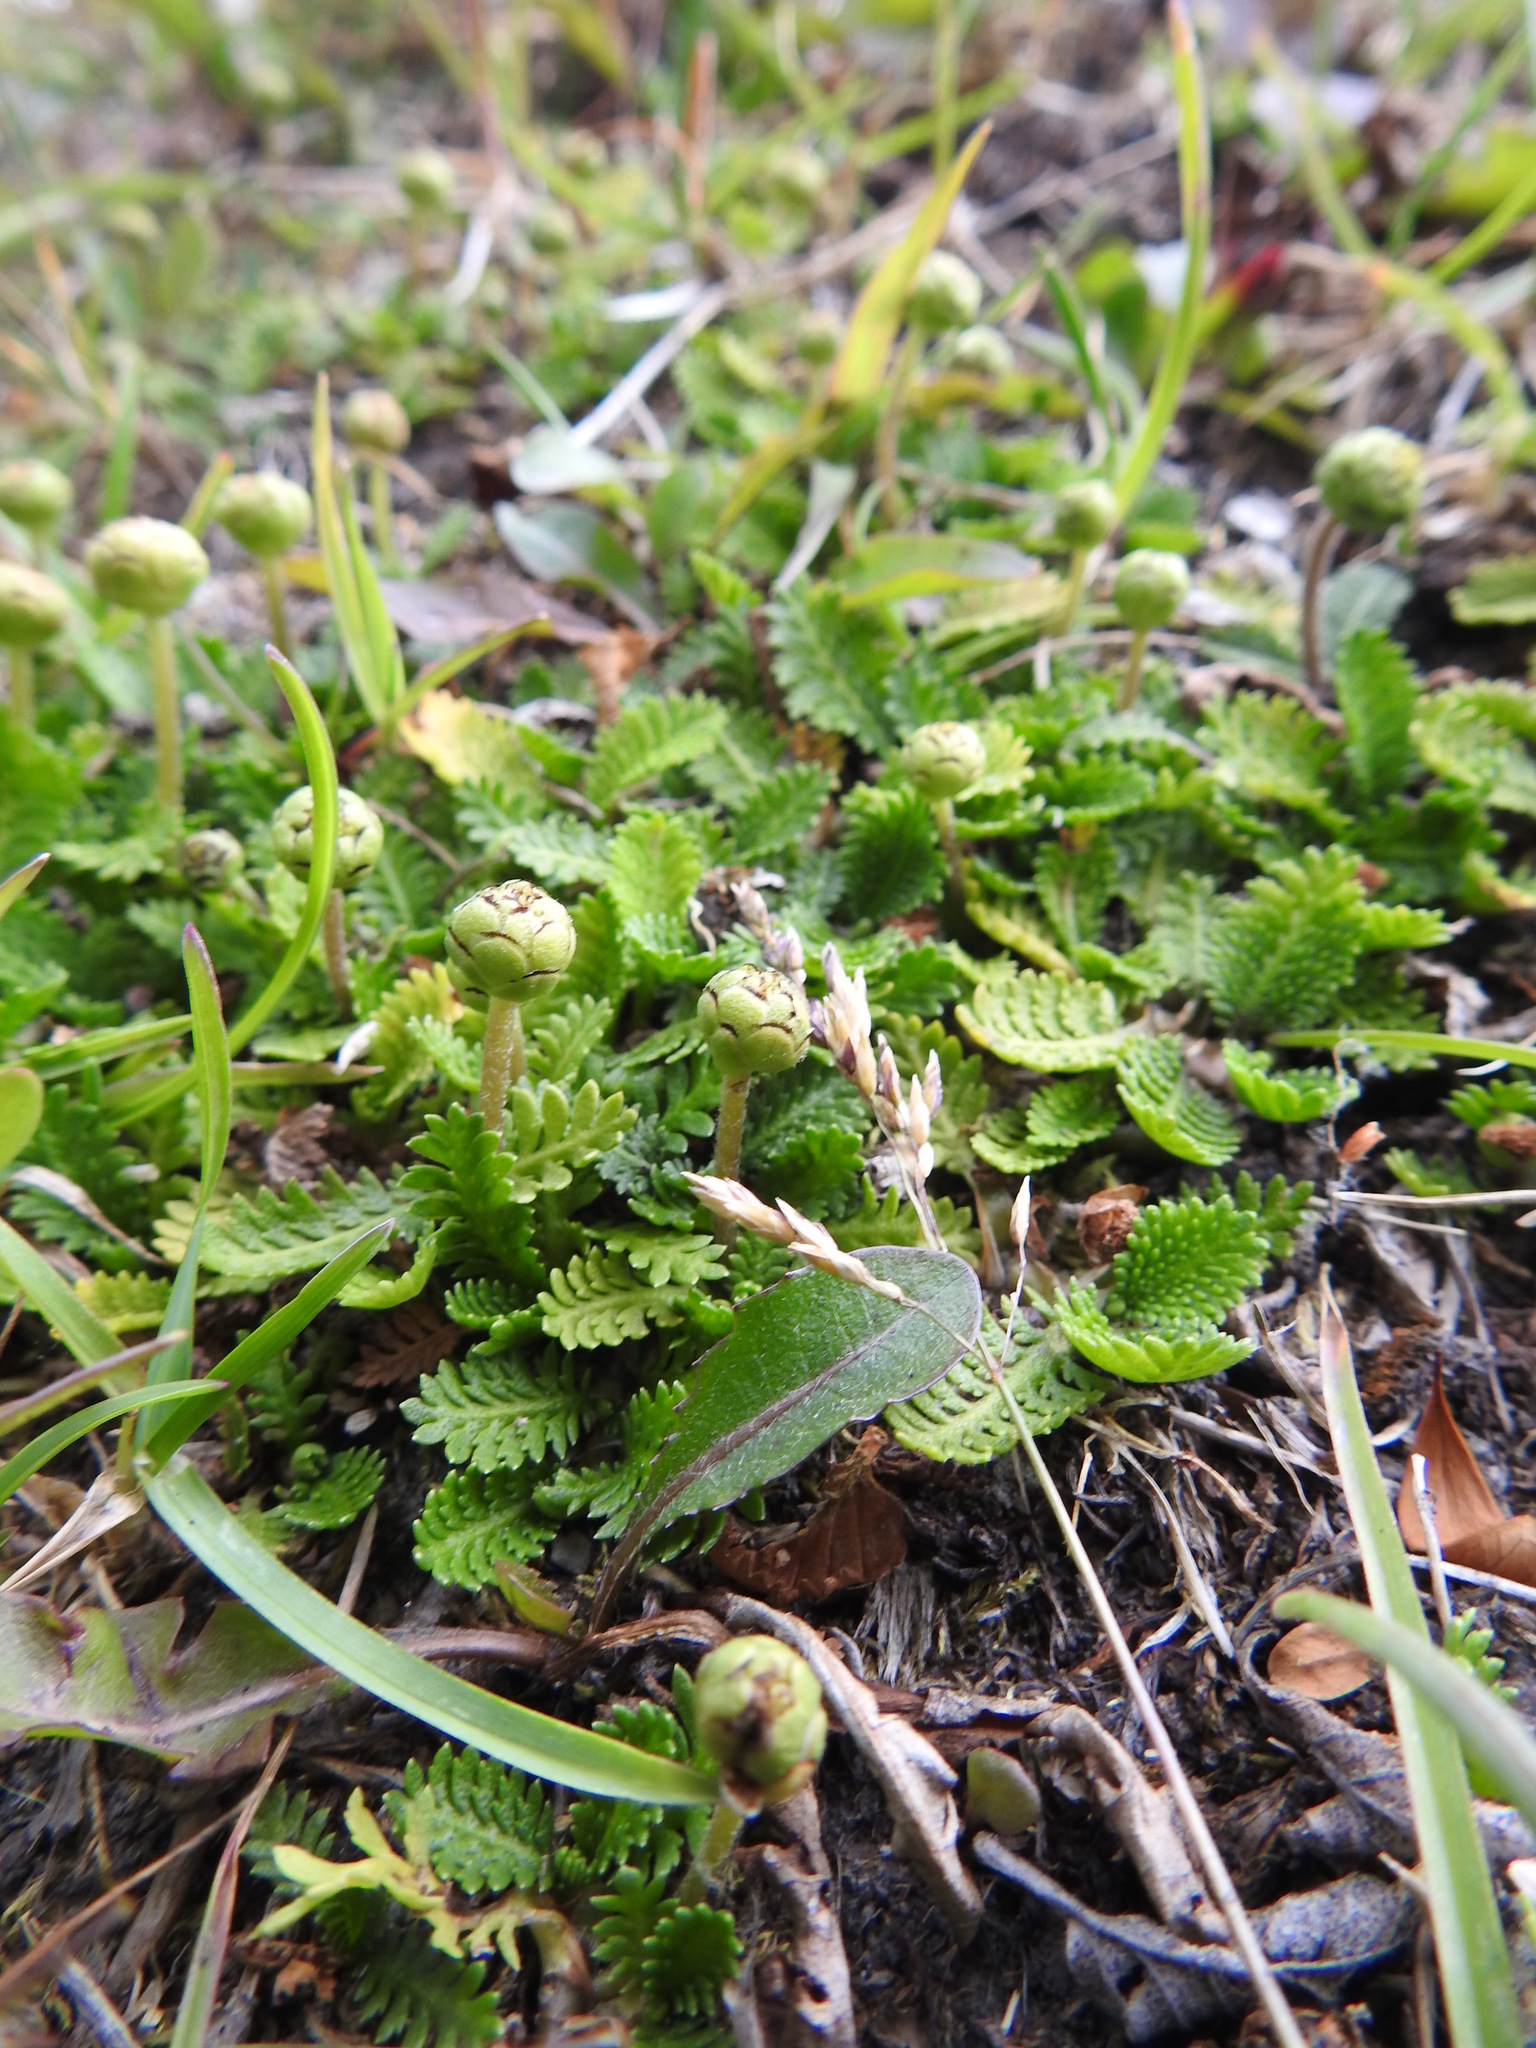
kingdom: Plantae
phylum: Tracheophyta
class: Magnoliopsida
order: Asterales
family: Asteraceae
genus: Leptinella
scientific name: Leptinella scariosa
